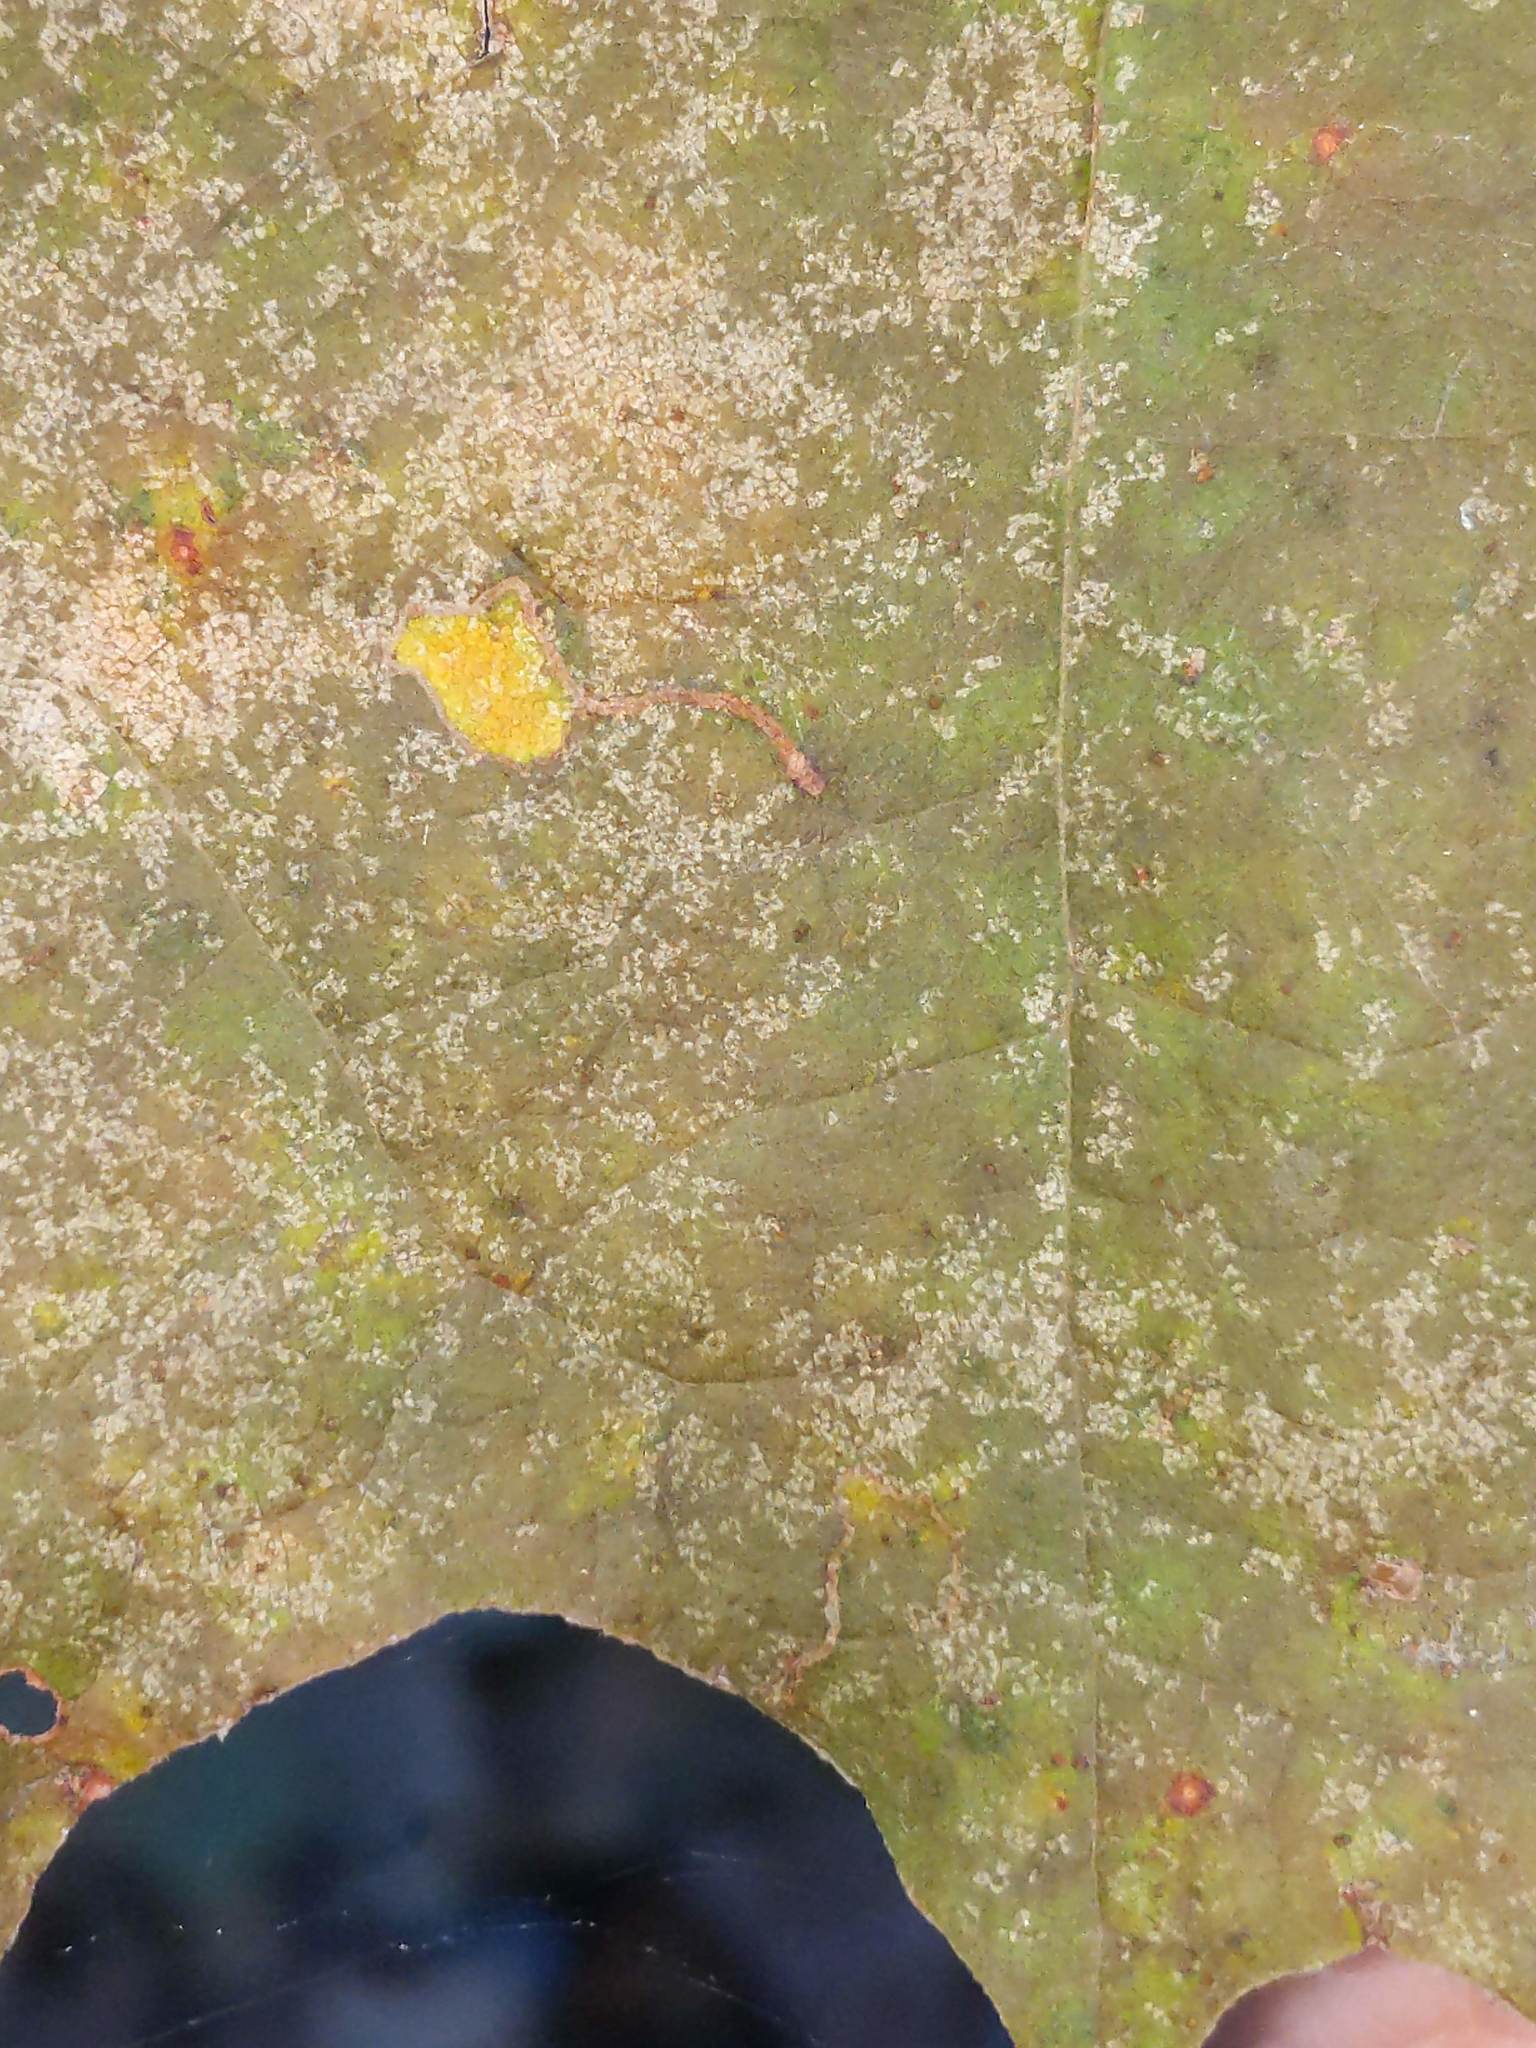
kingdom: Animalia
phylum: Arthropoda
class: Insecta
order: Lepidoptera
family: Nepticulidae
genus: Ectoedemia
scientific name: Ectoedemia clemensella
